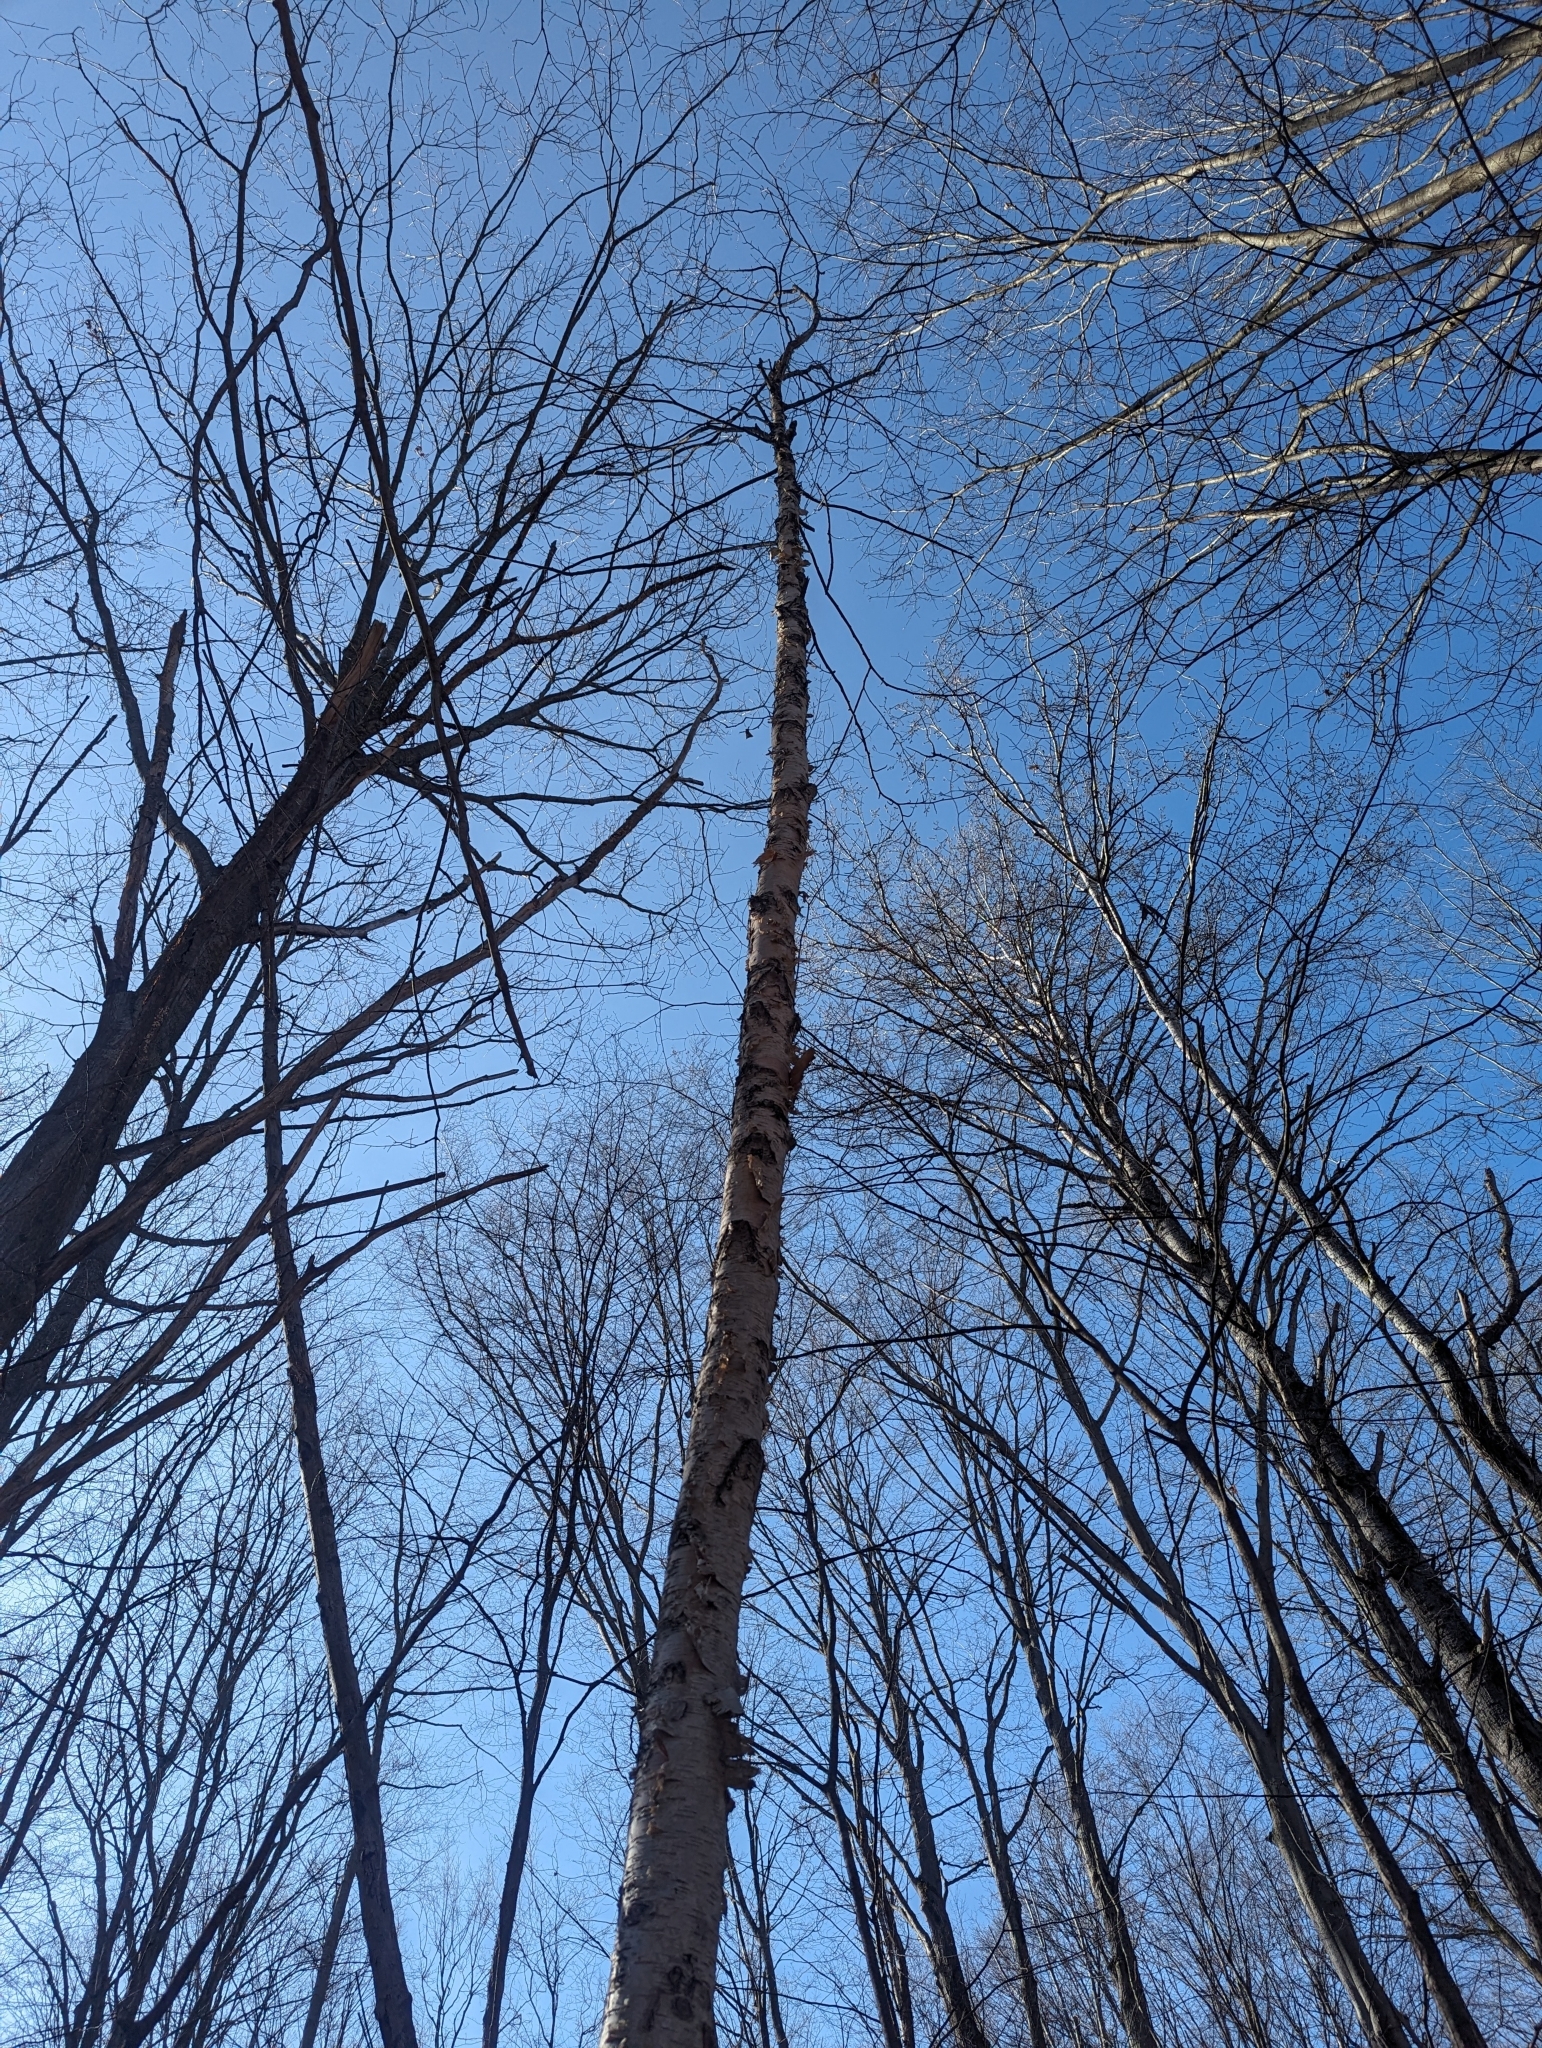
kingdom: Plantae
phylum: Tracheophyta
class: Magnoliopsida
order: Fagales
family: Betulaceae
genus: Betula
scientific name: Betula papyrifera
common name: Paper birch
